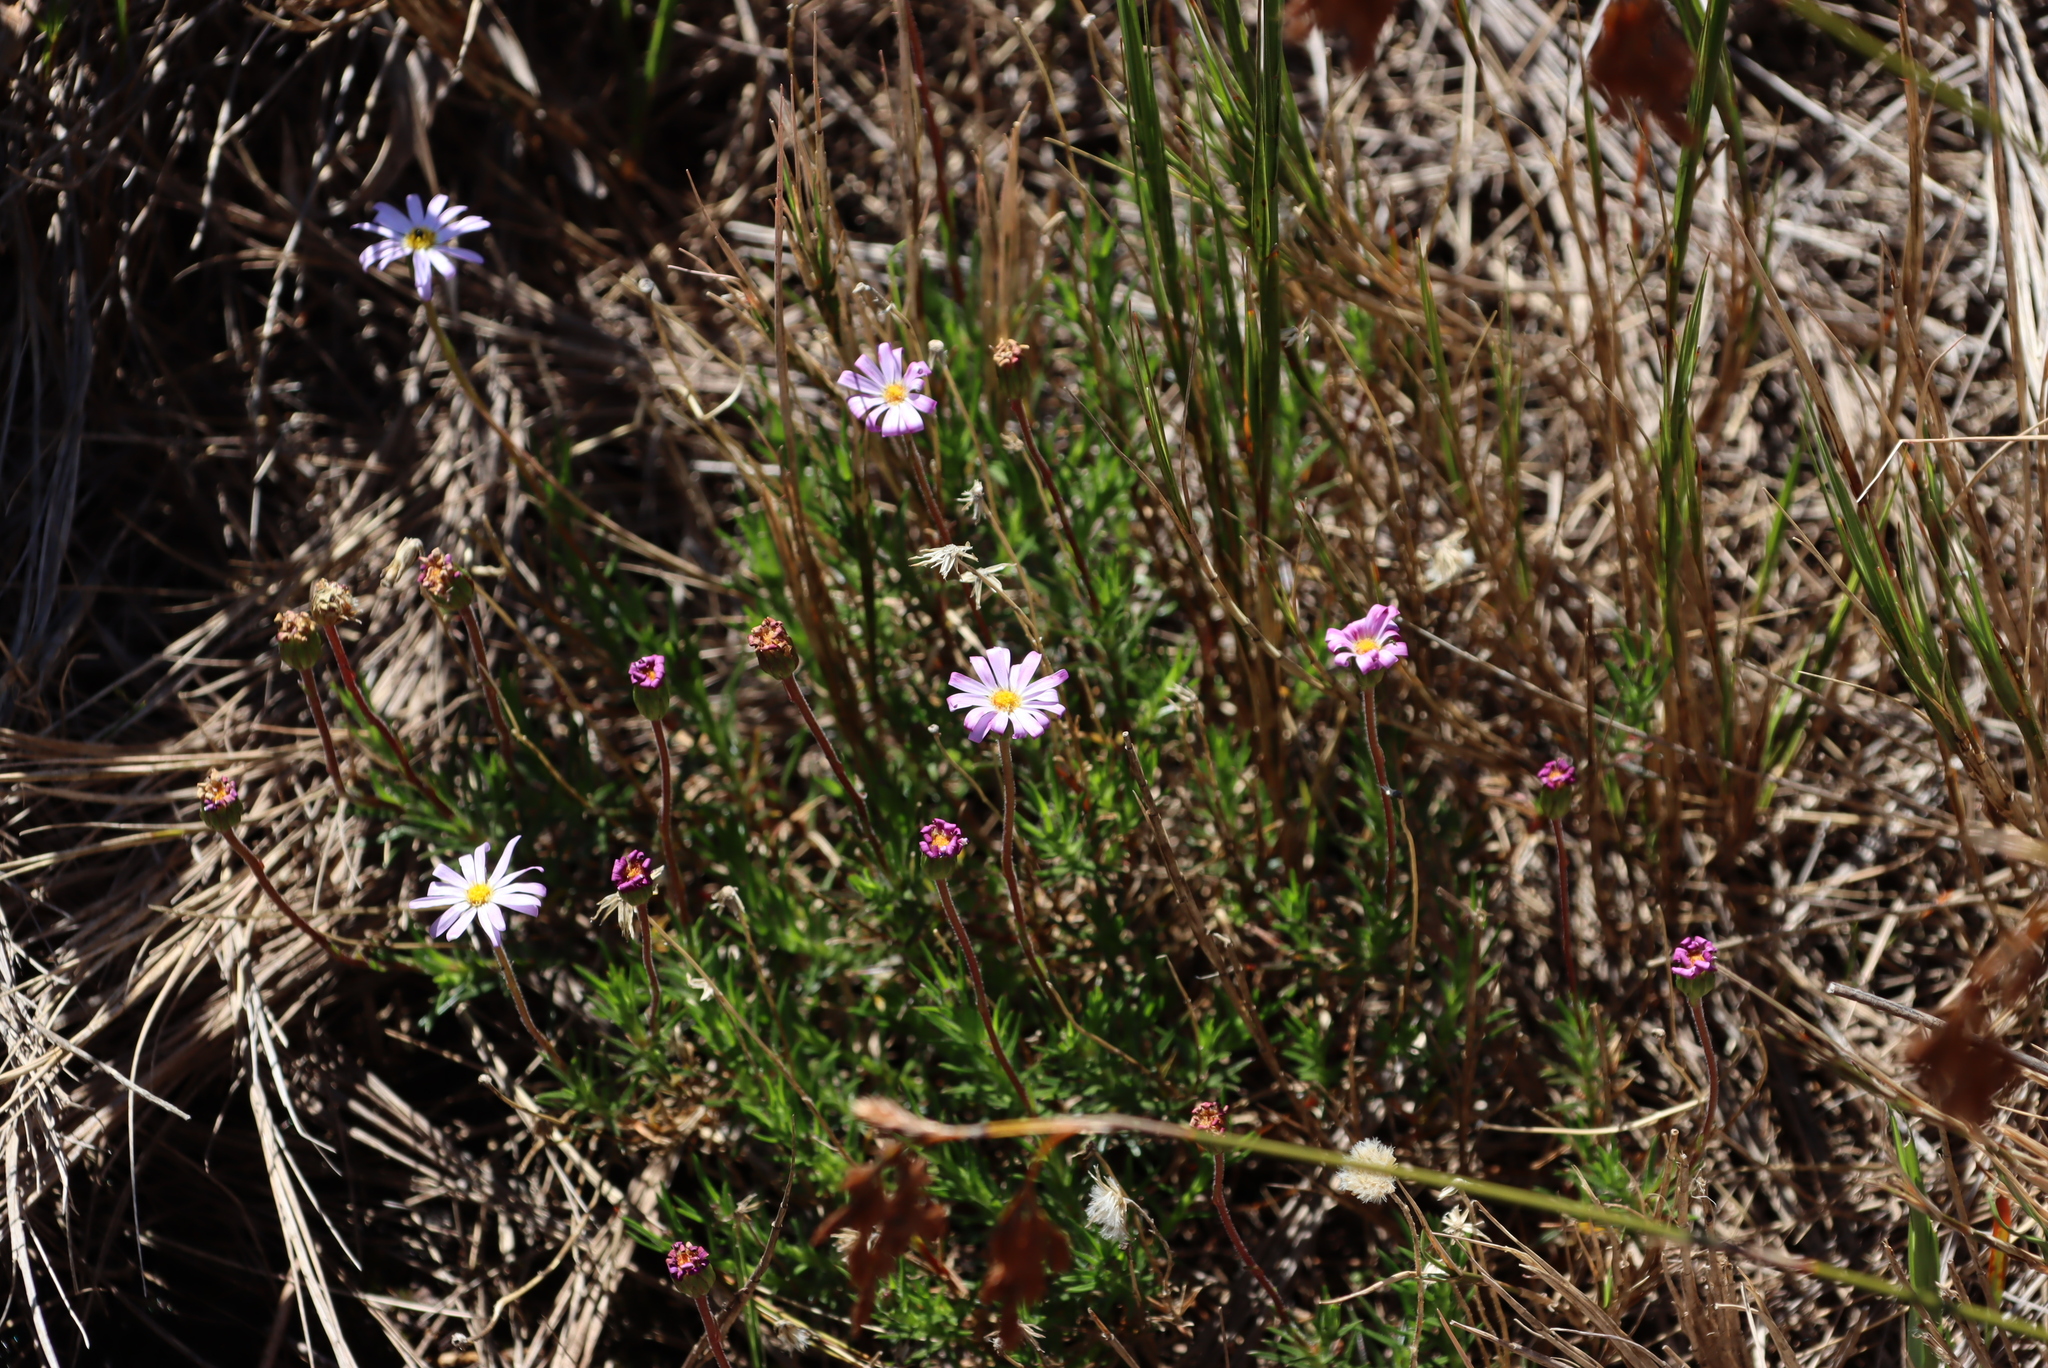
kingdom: Plantae
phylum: Tracheophyta
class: Magnoliopsida
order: Asterales
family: Asteraceae
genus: Zyrphelis
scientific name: Zyrphelis taxifolia
